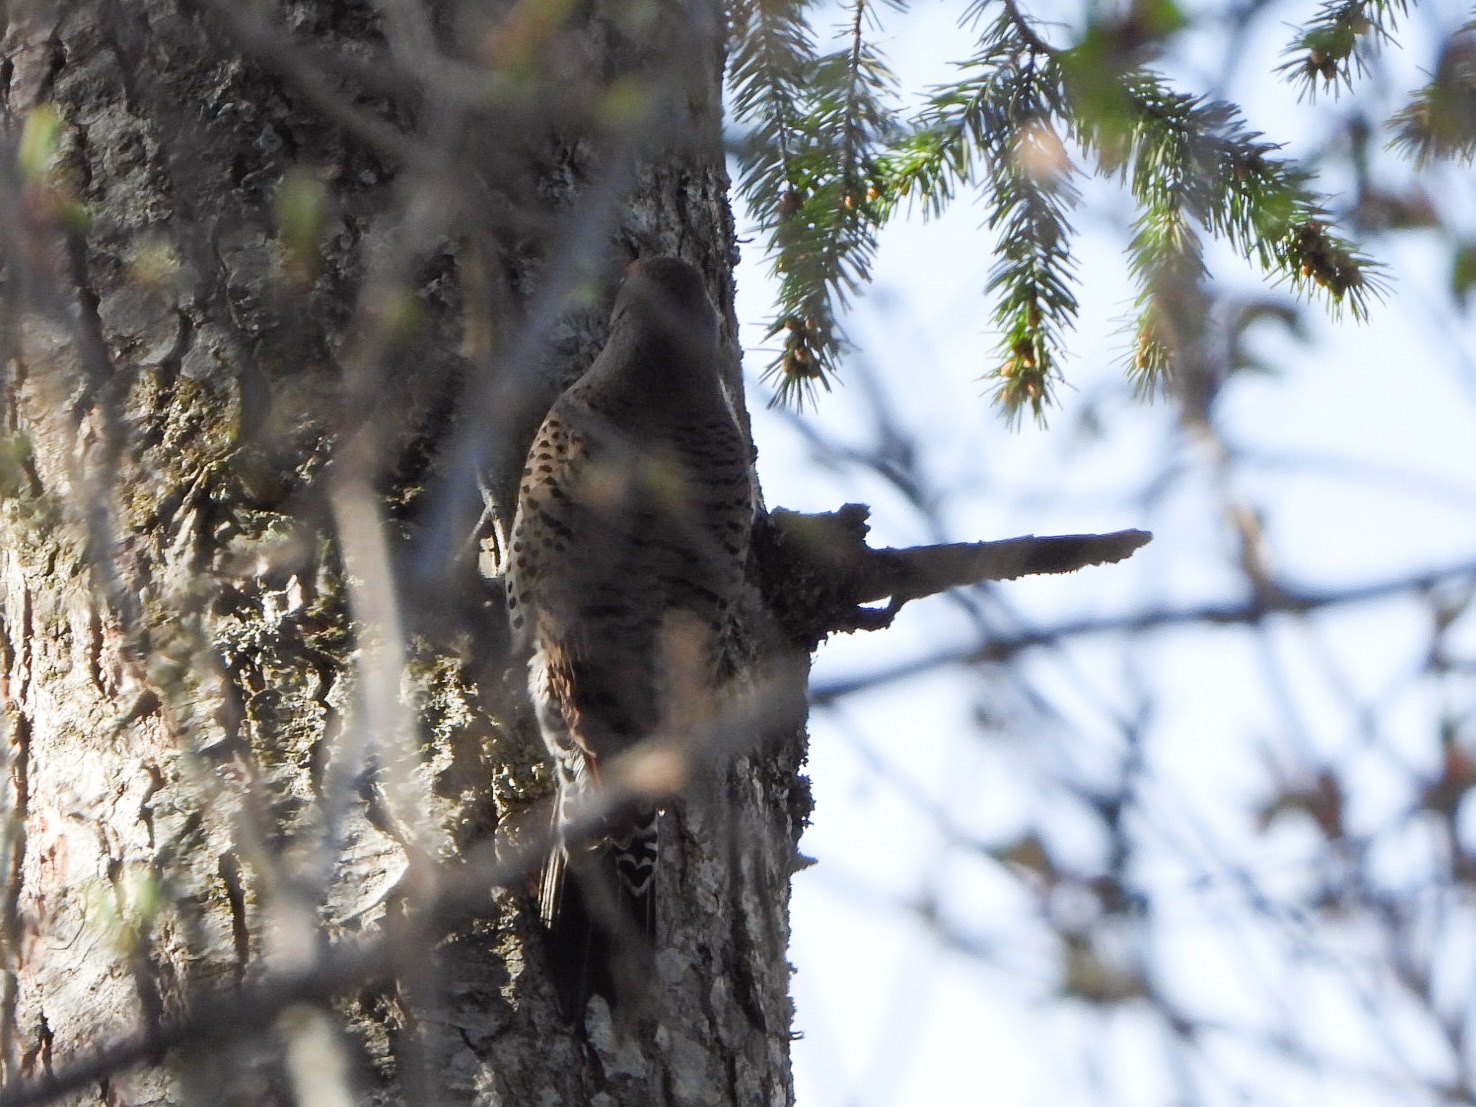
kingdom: Animalia
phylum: Chordata
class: Aves
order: Piciformes
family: Picidae
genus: Colaptes
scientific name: Colaptes auratus
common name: Northern flicker
